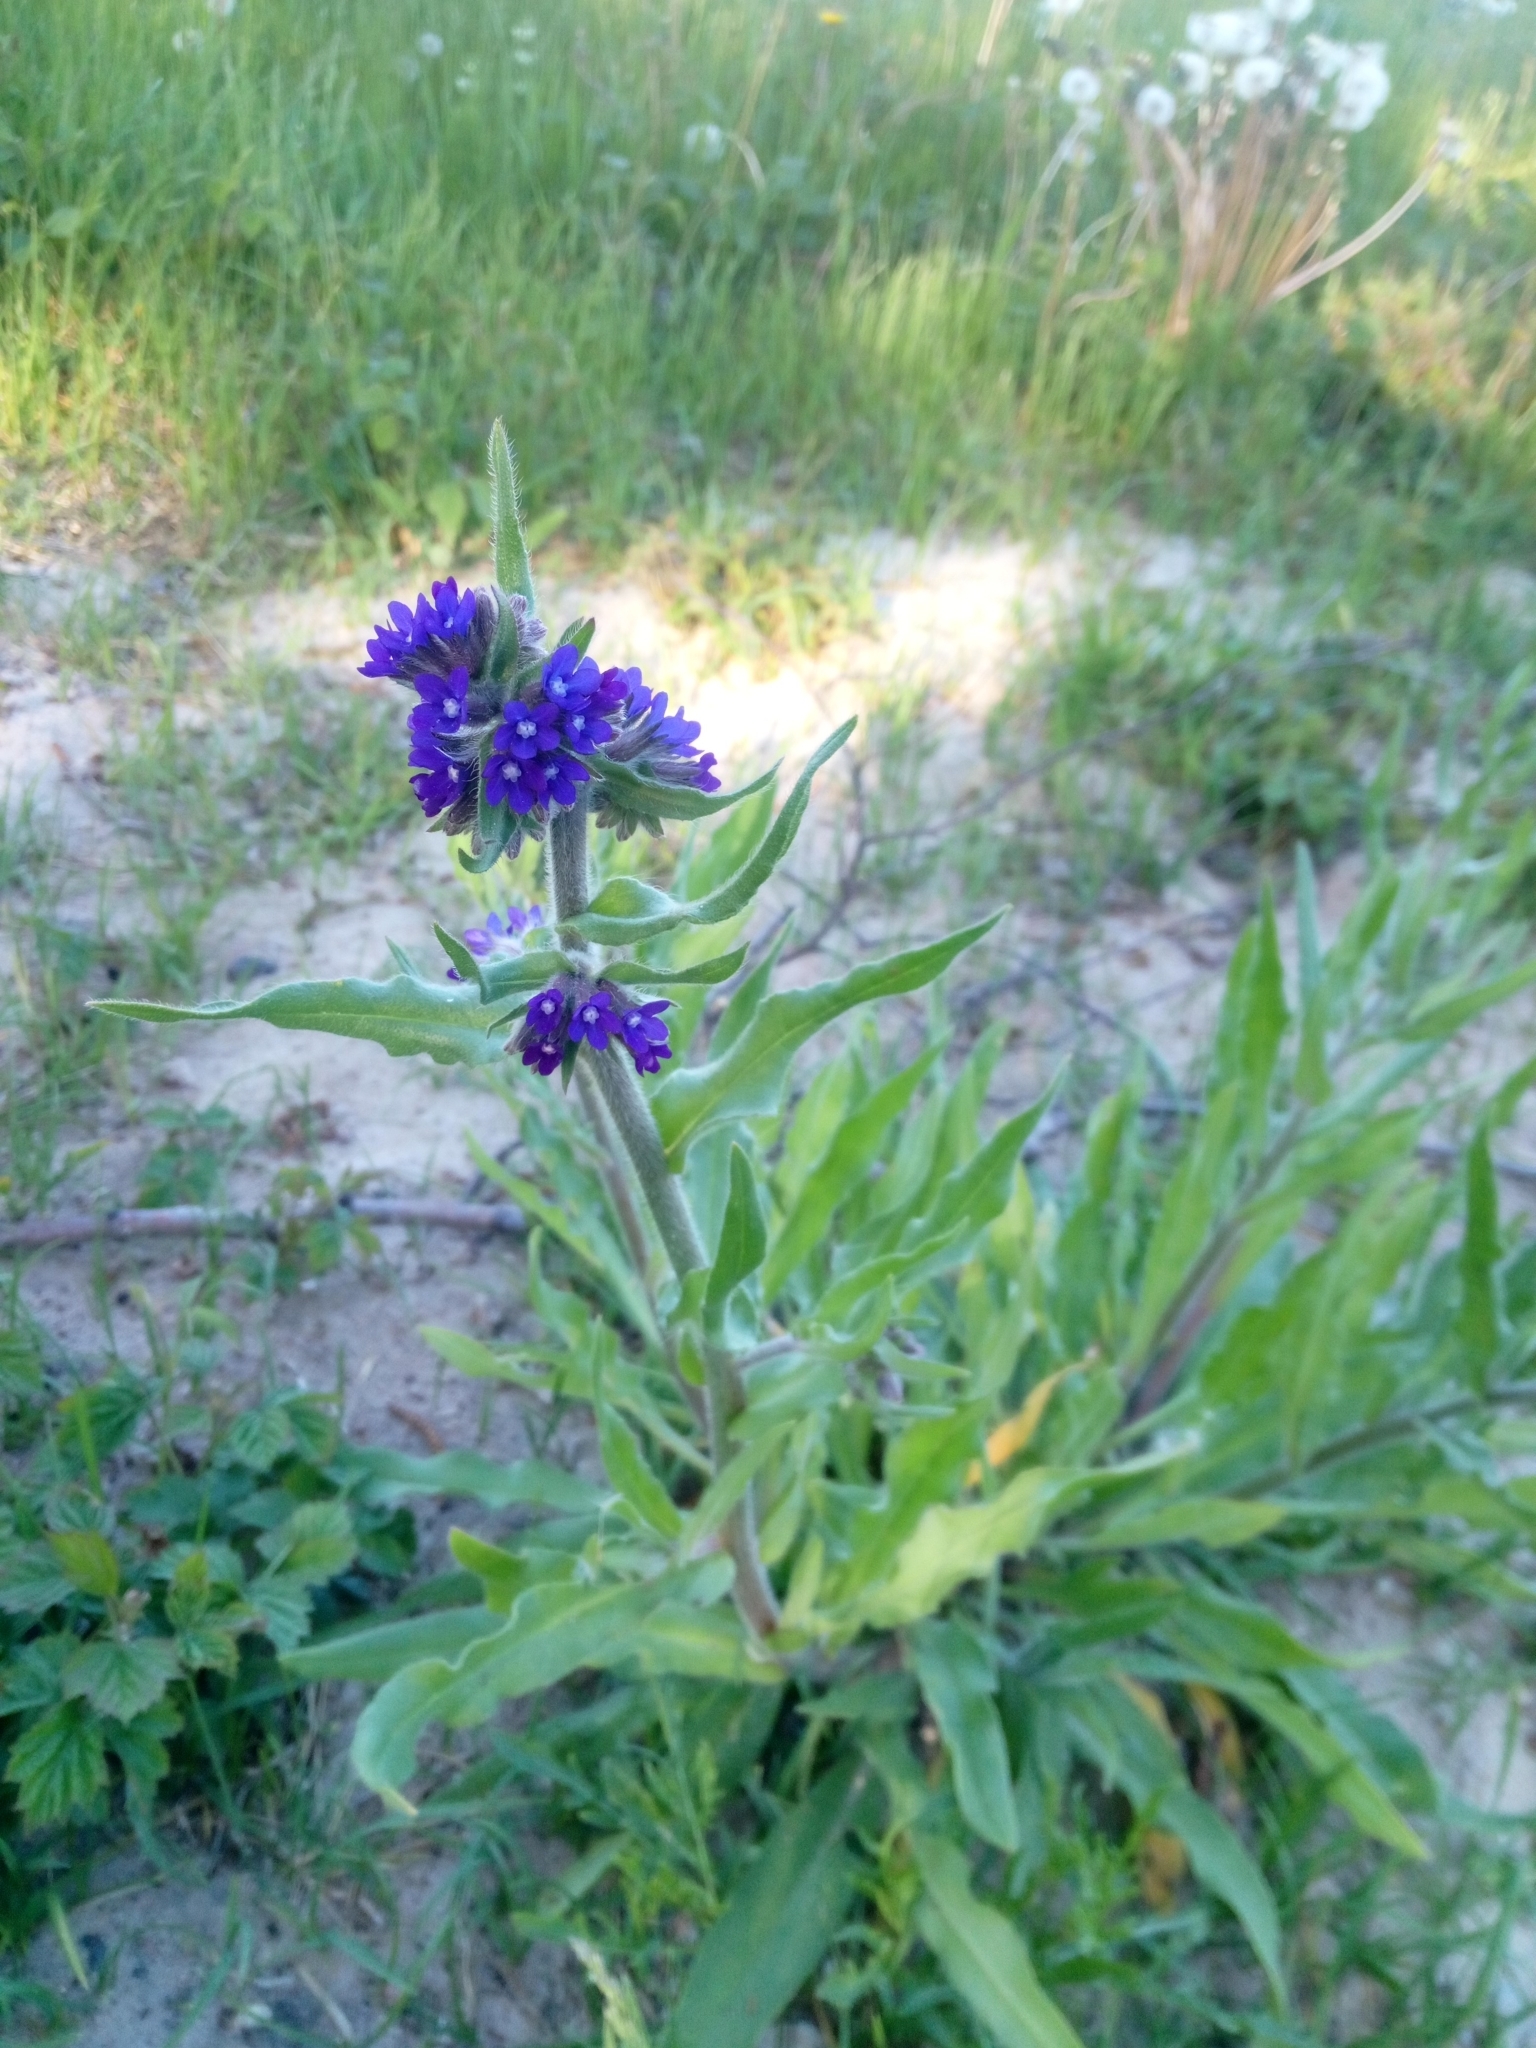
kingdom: Plantae
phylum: Tracheophyta
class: Magnoliopsida
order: Boraginales
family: Boraginaceae
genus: Anchusa
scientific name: Anchusa officinalis
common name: Alkanet
